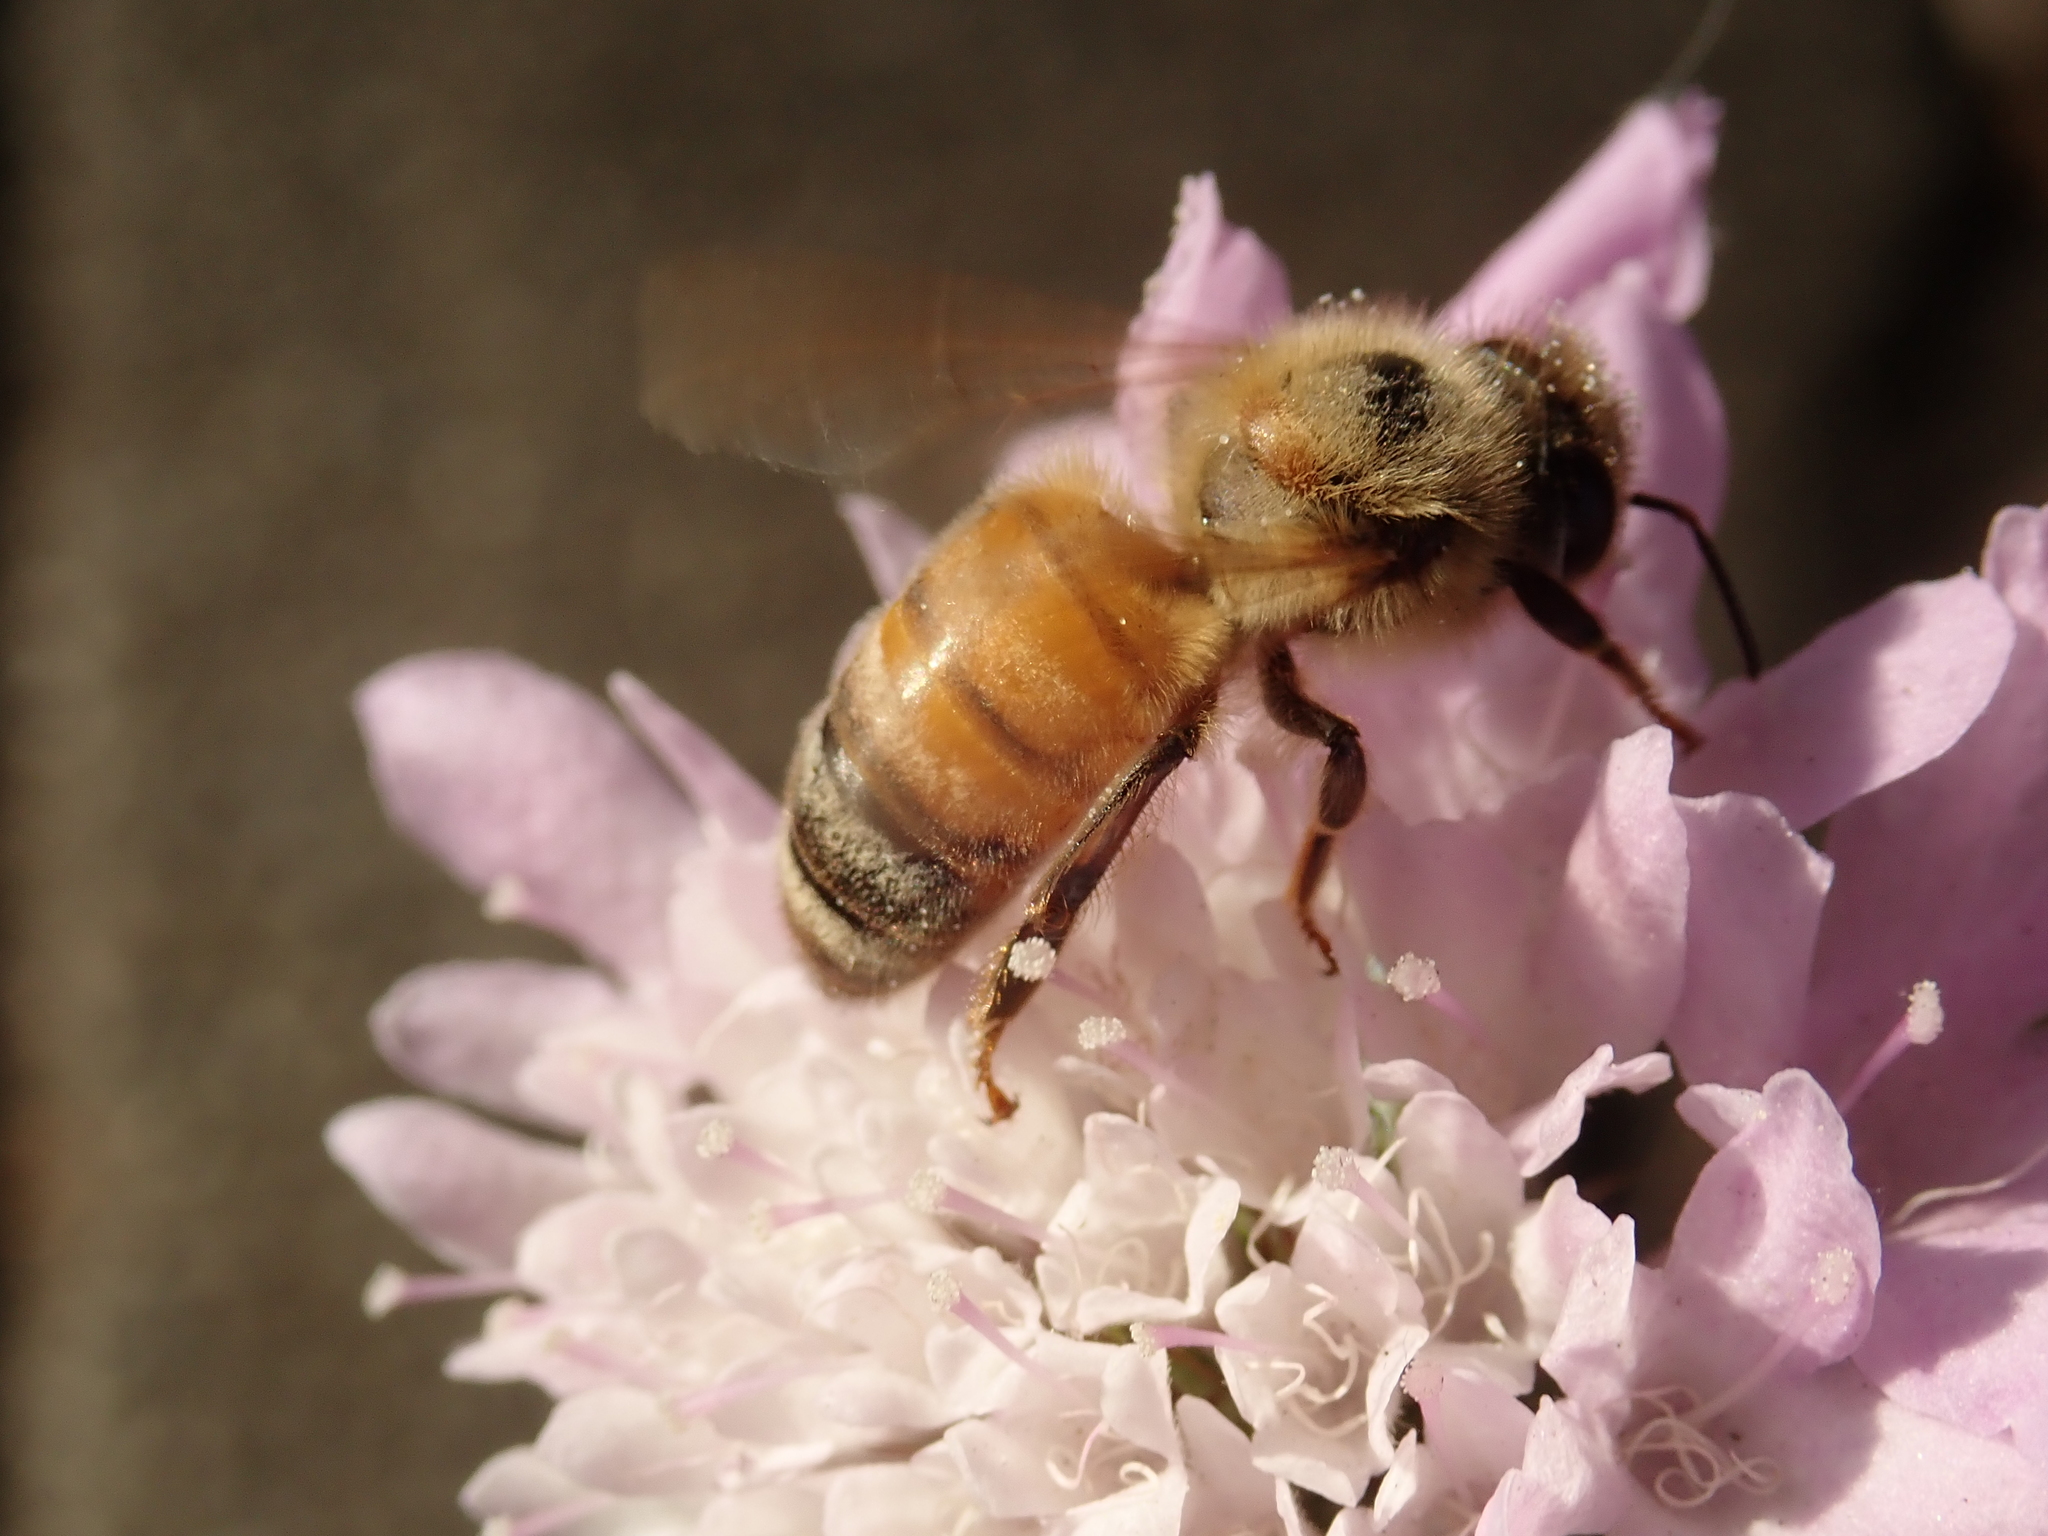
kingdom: Animalia
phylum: Arthropoda
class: Insecta
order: Hymenoptera
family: Apidae
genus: Apis
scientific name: Apis mellifera
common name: Honey bee
